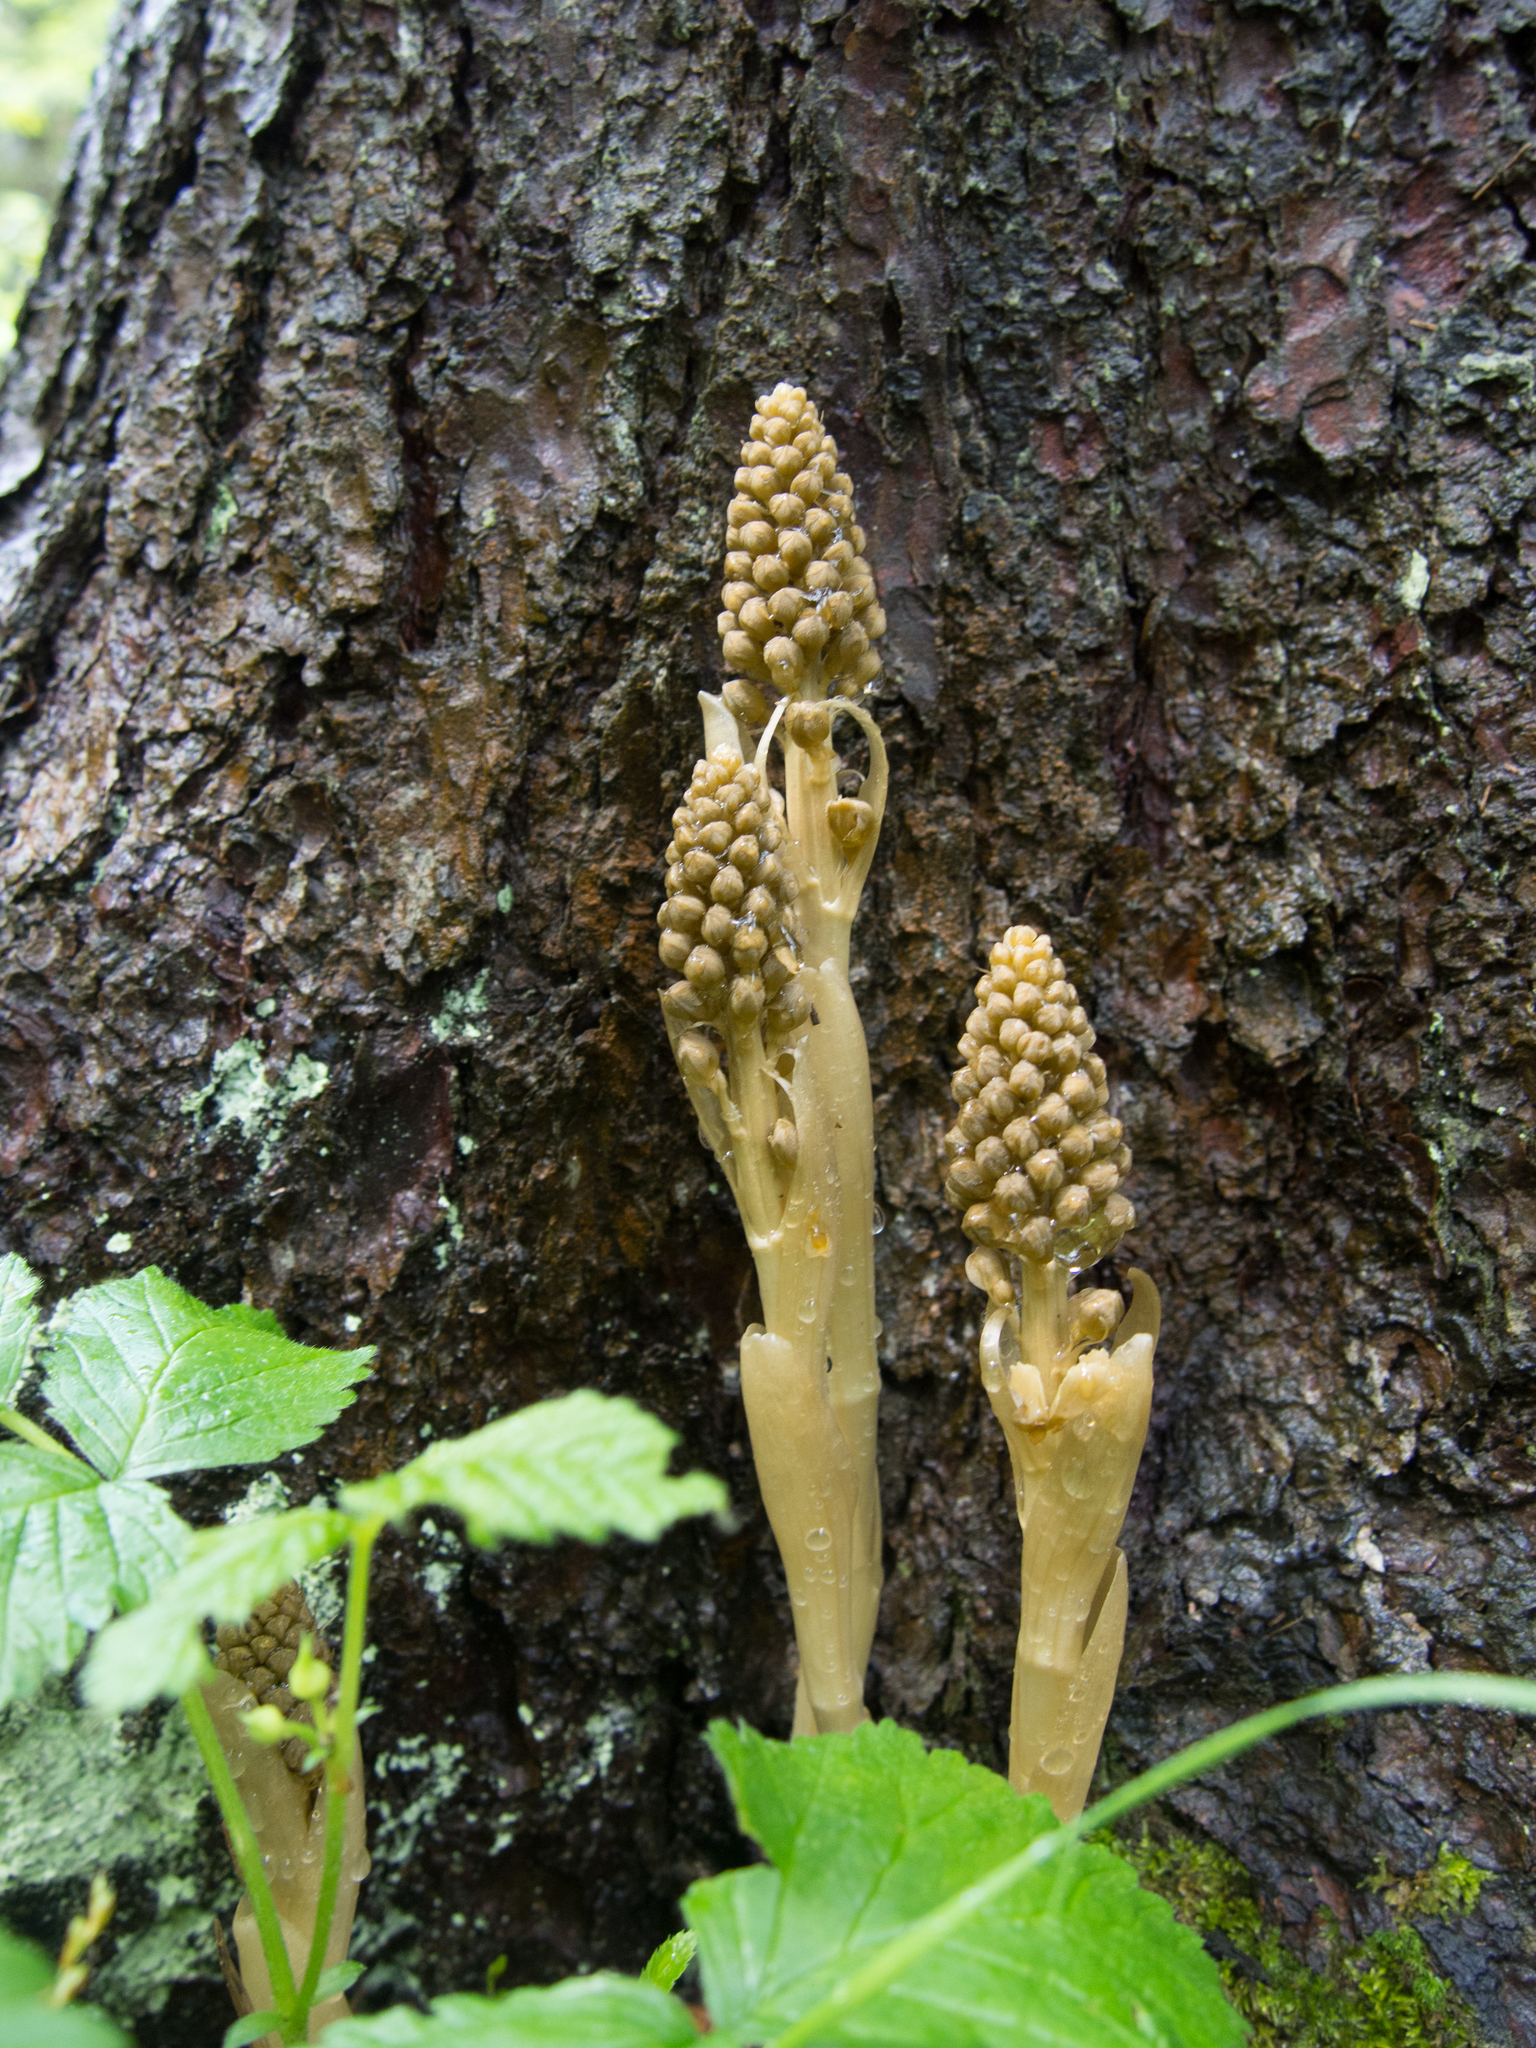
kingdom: Plantae
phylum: Tracheophyta
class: Liliopsida
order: Asparagales
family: Orchidaceae
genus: Neottia
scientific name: Neottia nidus-avis
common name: Bird's-nest orchid
